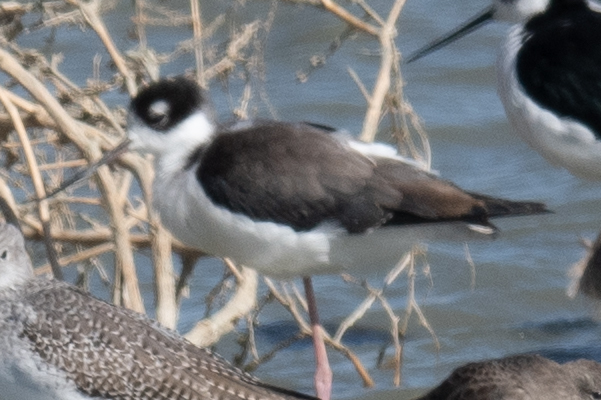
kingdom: Animalia
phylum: Chordata
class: Aves
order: Charadriiformes
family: Recurvirostridae
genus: Himantopus
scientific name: Himantopus mexicanus
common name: Black-necked stilt
